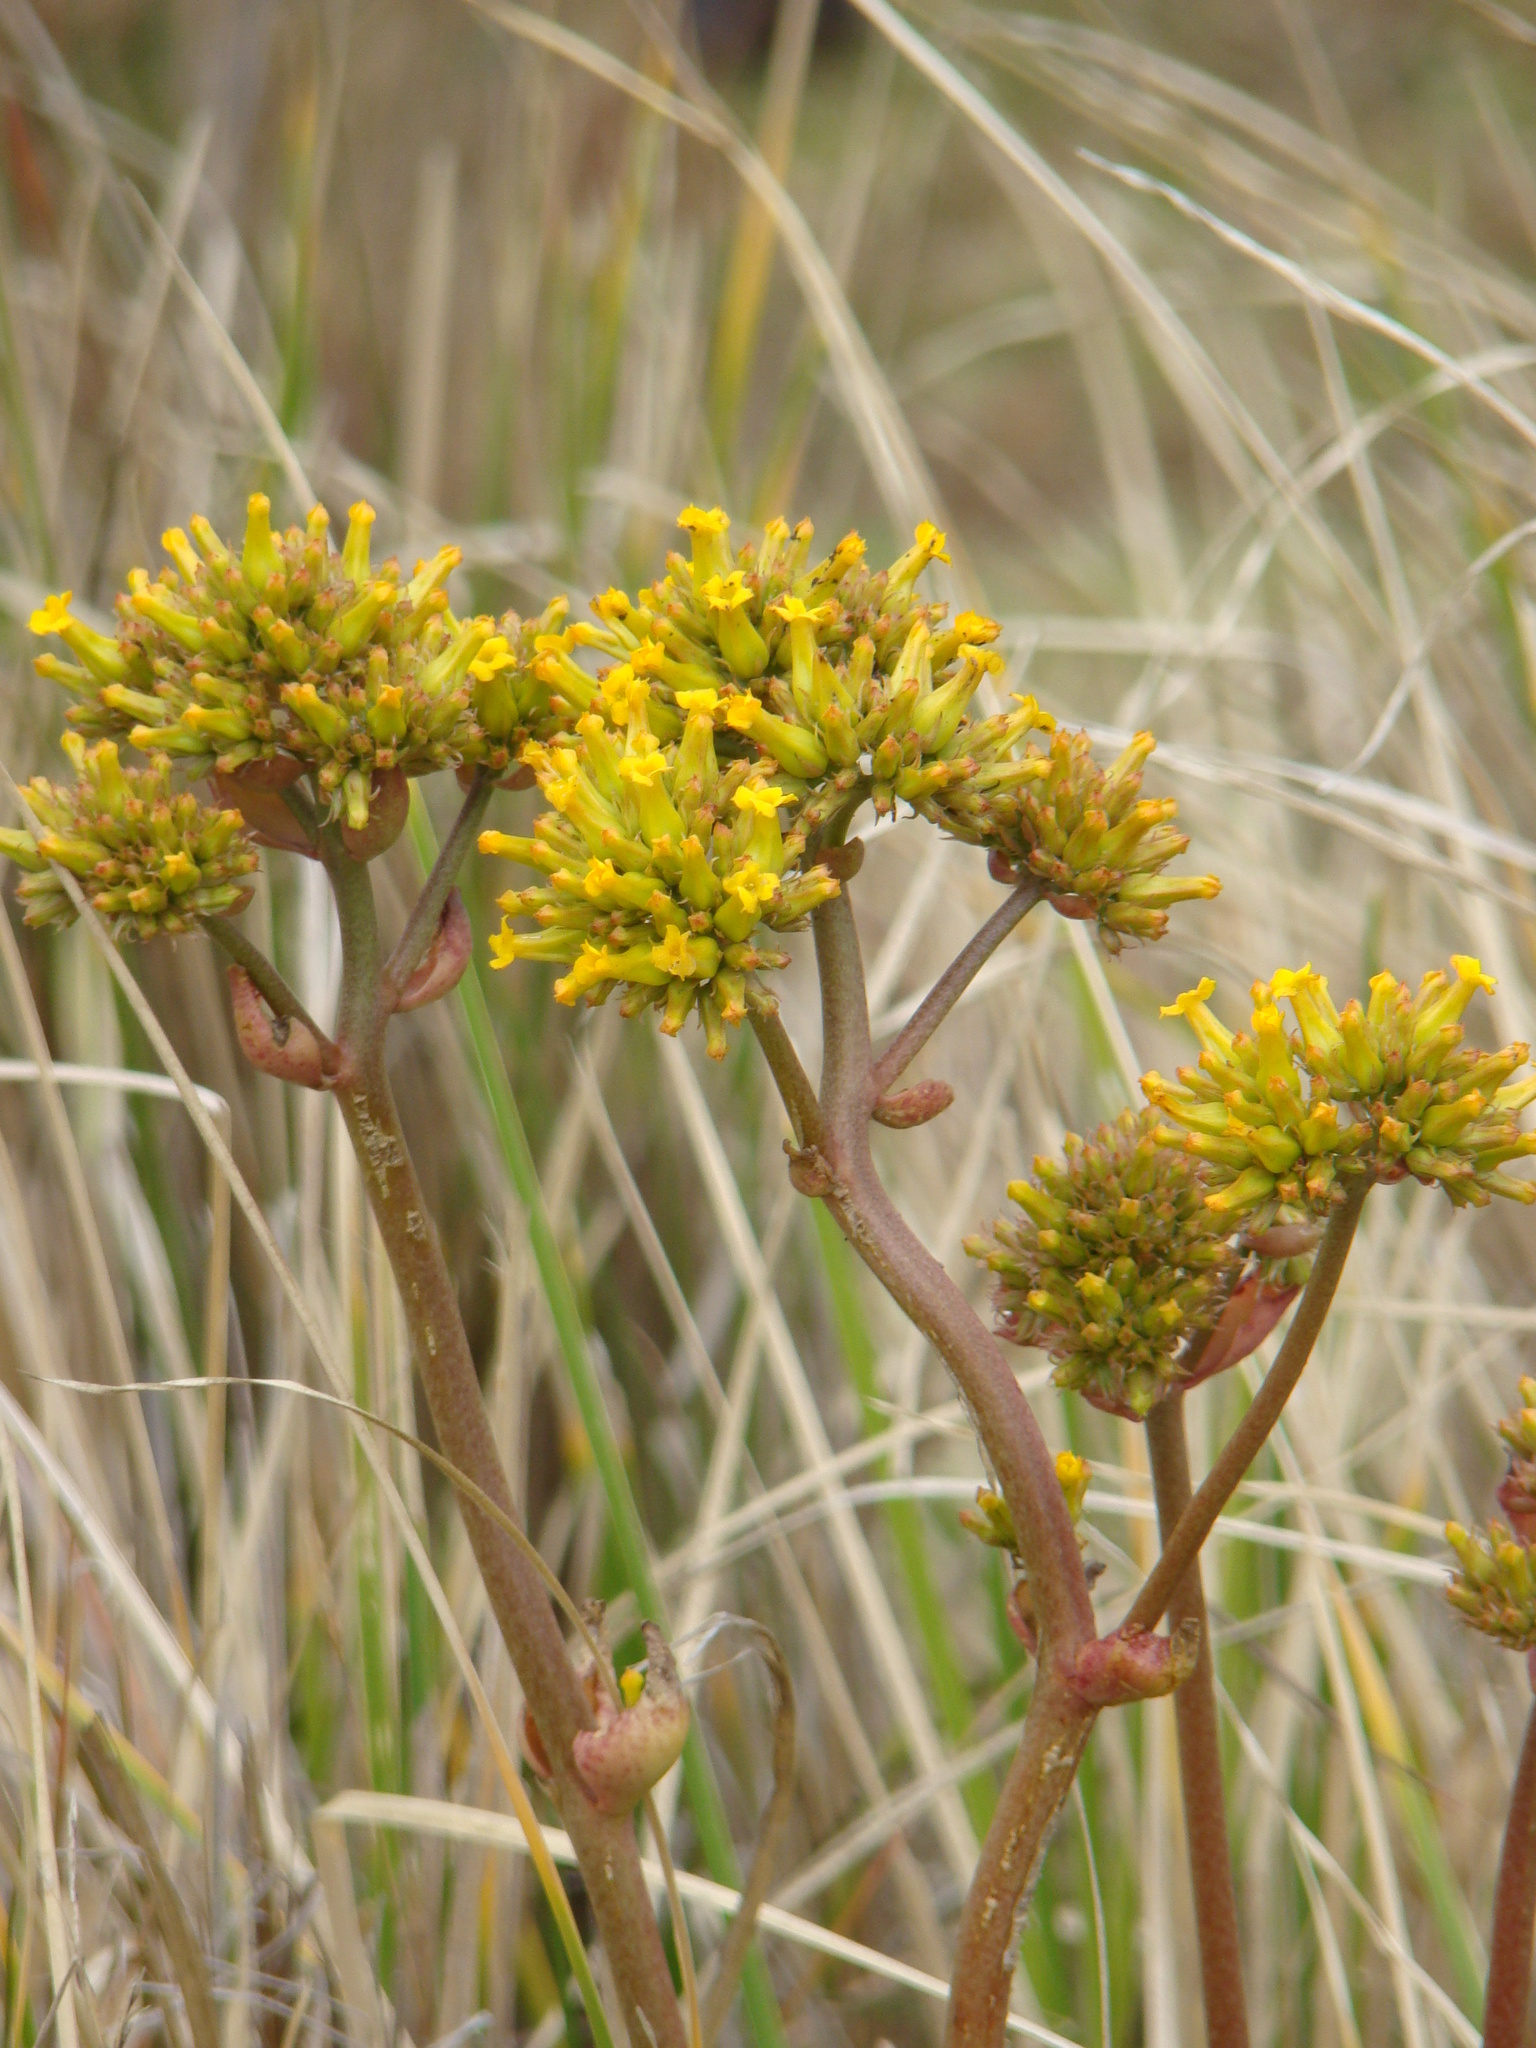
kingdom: Plantae
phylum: Tracheophyta
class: Magnoliopsida
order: Saxifragales
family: Crassulaceae
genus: Kalanchoe
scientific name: Kalanchoe densiflora
